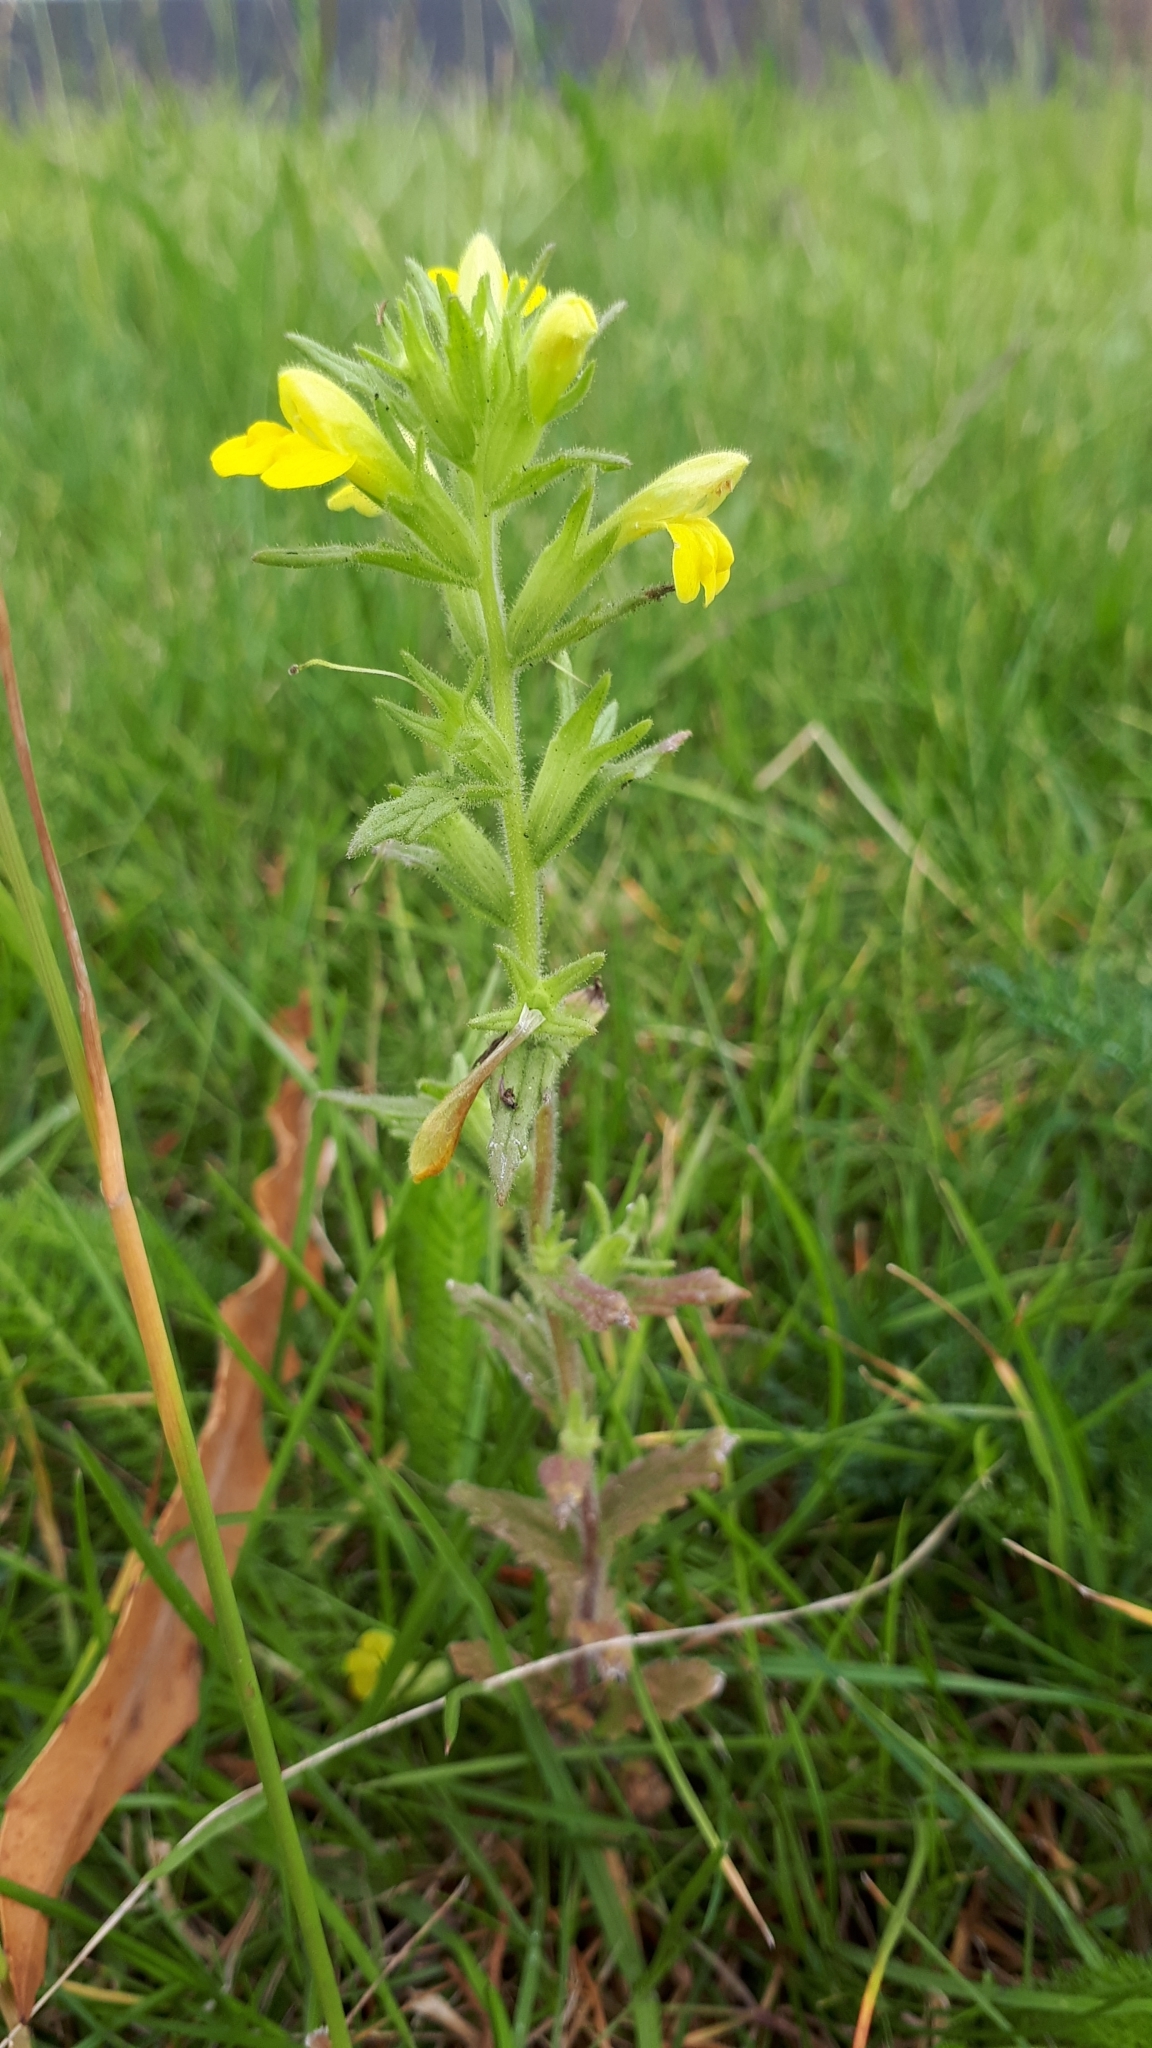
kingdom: Plantae
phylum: Tracheophyta
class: Magnoliopsida
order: Lamiales
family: Orobanchaceae
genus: Bellardia
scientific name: Bellardia viscosa
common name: Sticky parentucellia
